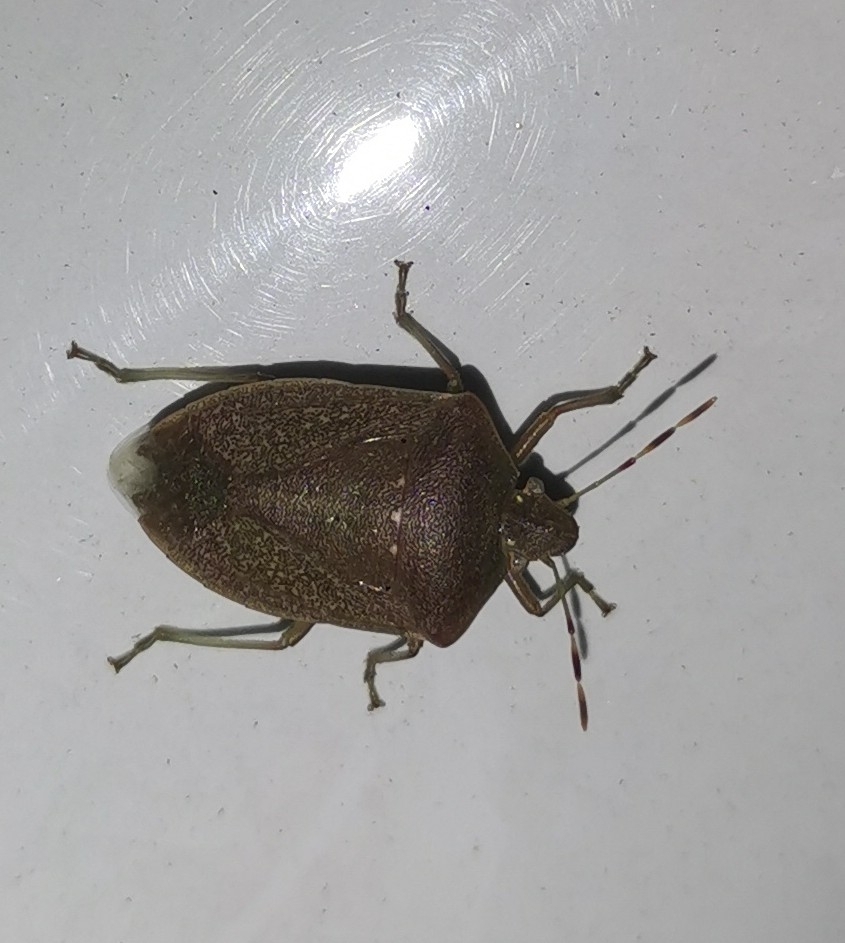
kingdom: Animalia
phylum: Arthropoda
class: Insecta
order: Hemiptera
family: Pentatomidae
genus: Nezara
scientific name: Nezara viridula
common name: Southern green stink bug
